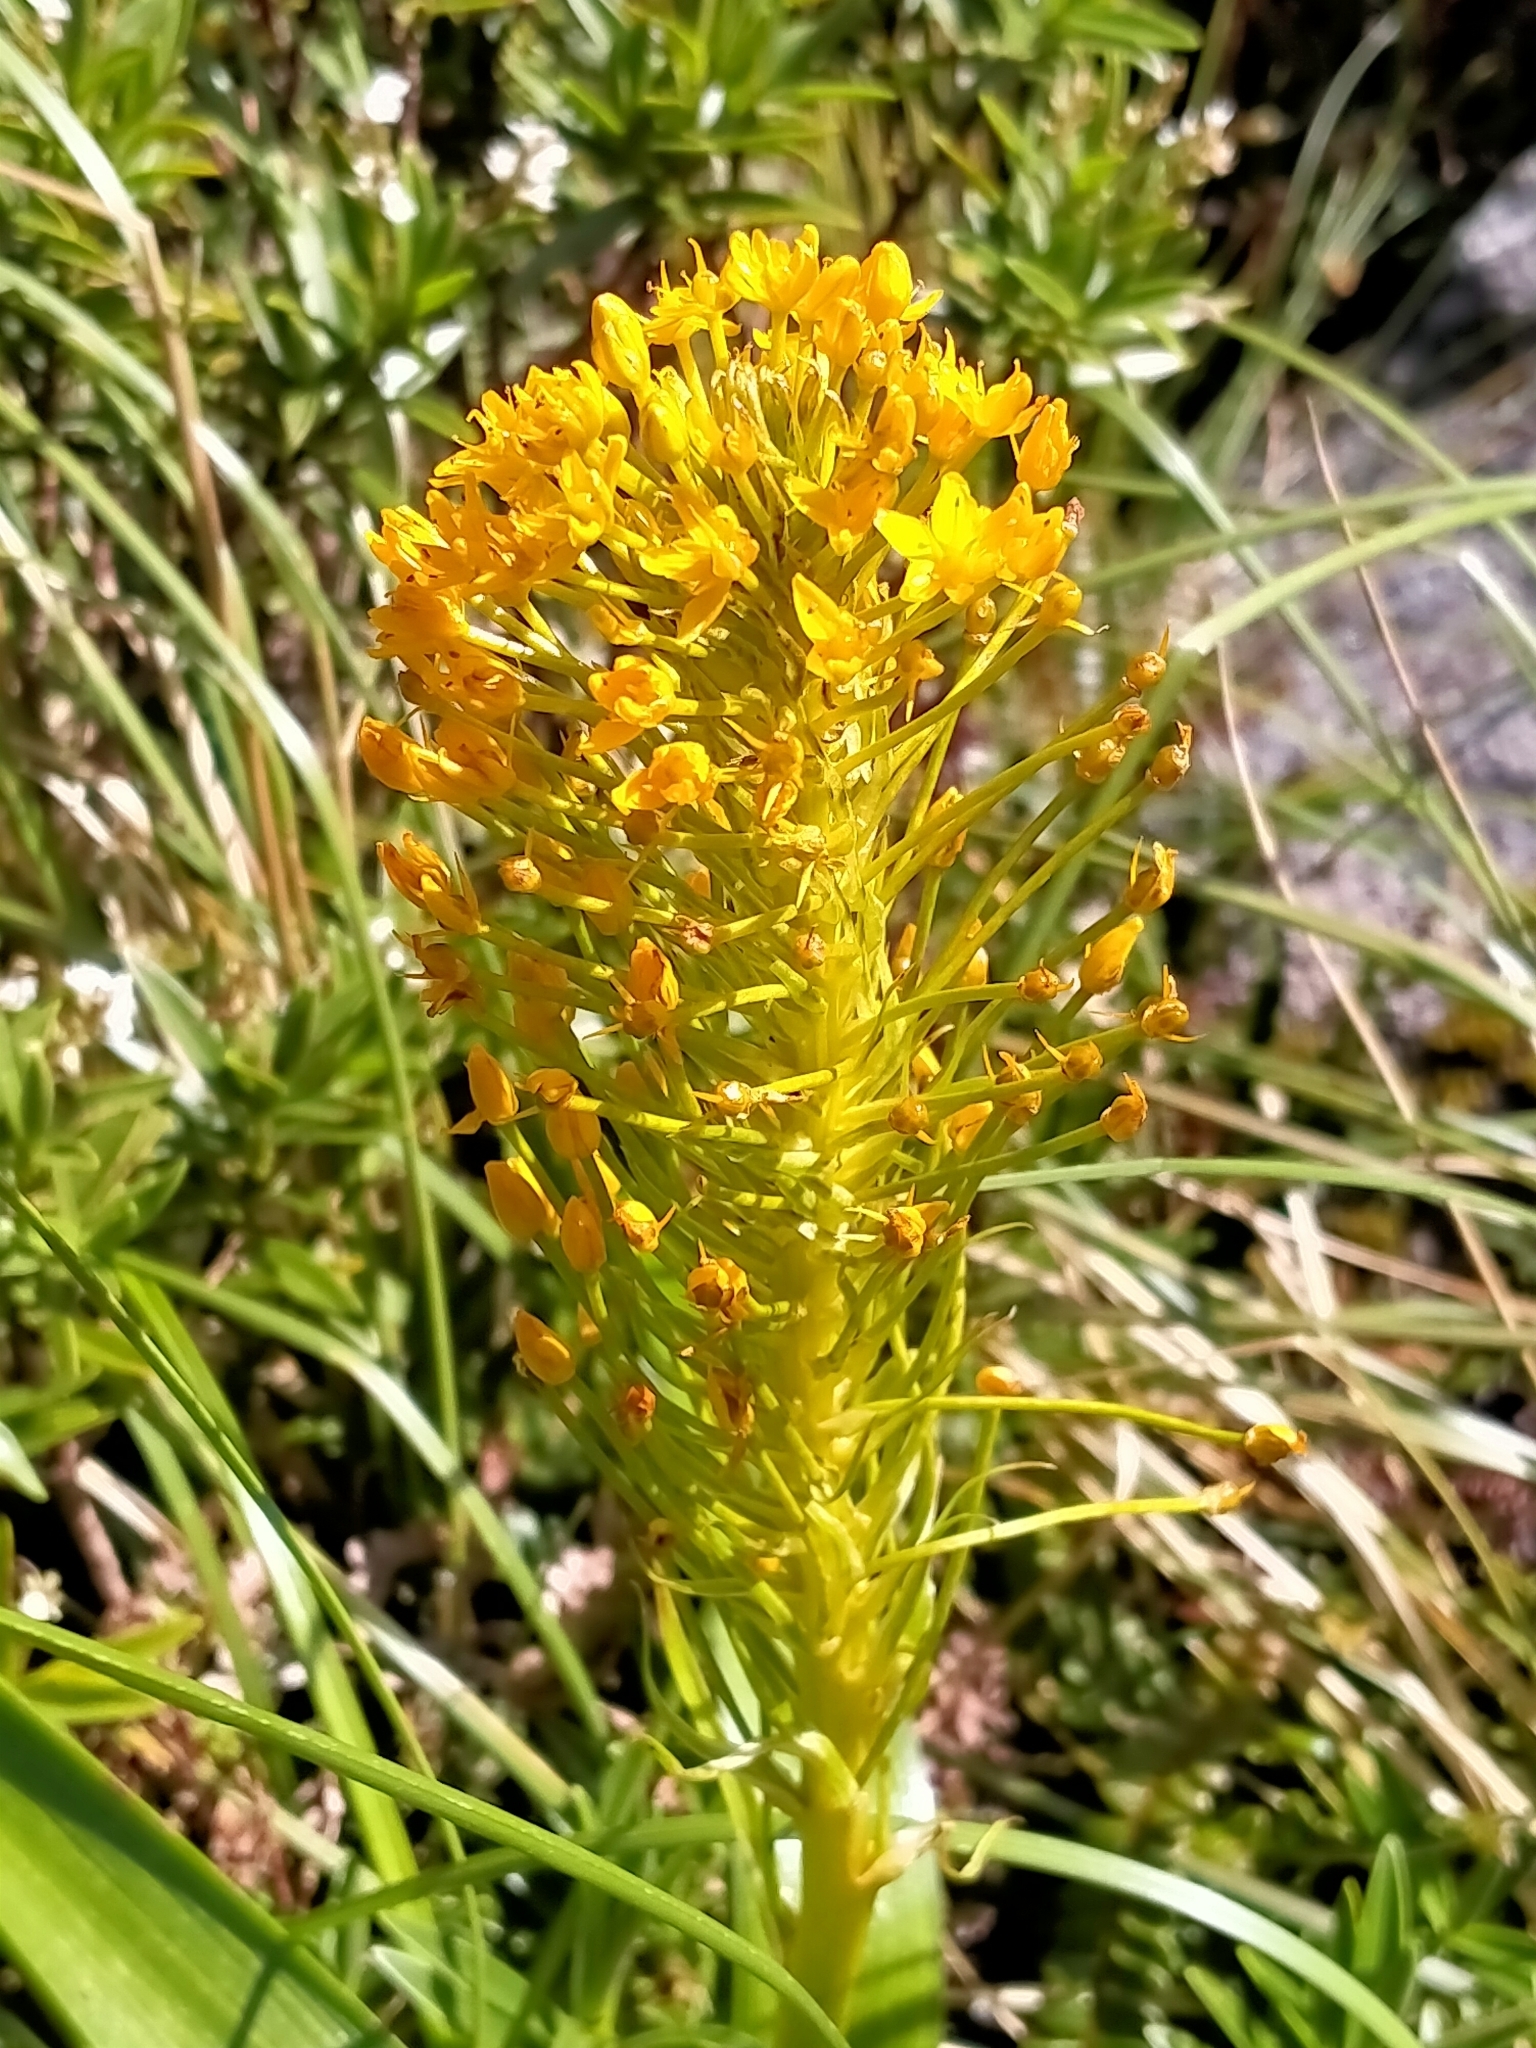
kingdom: Plantae
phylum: Tracheophyta
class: Liliopsida
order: Asparagales
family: Asphodelaceae
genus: Bulbinella
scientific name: Bulbinella gibbsii
